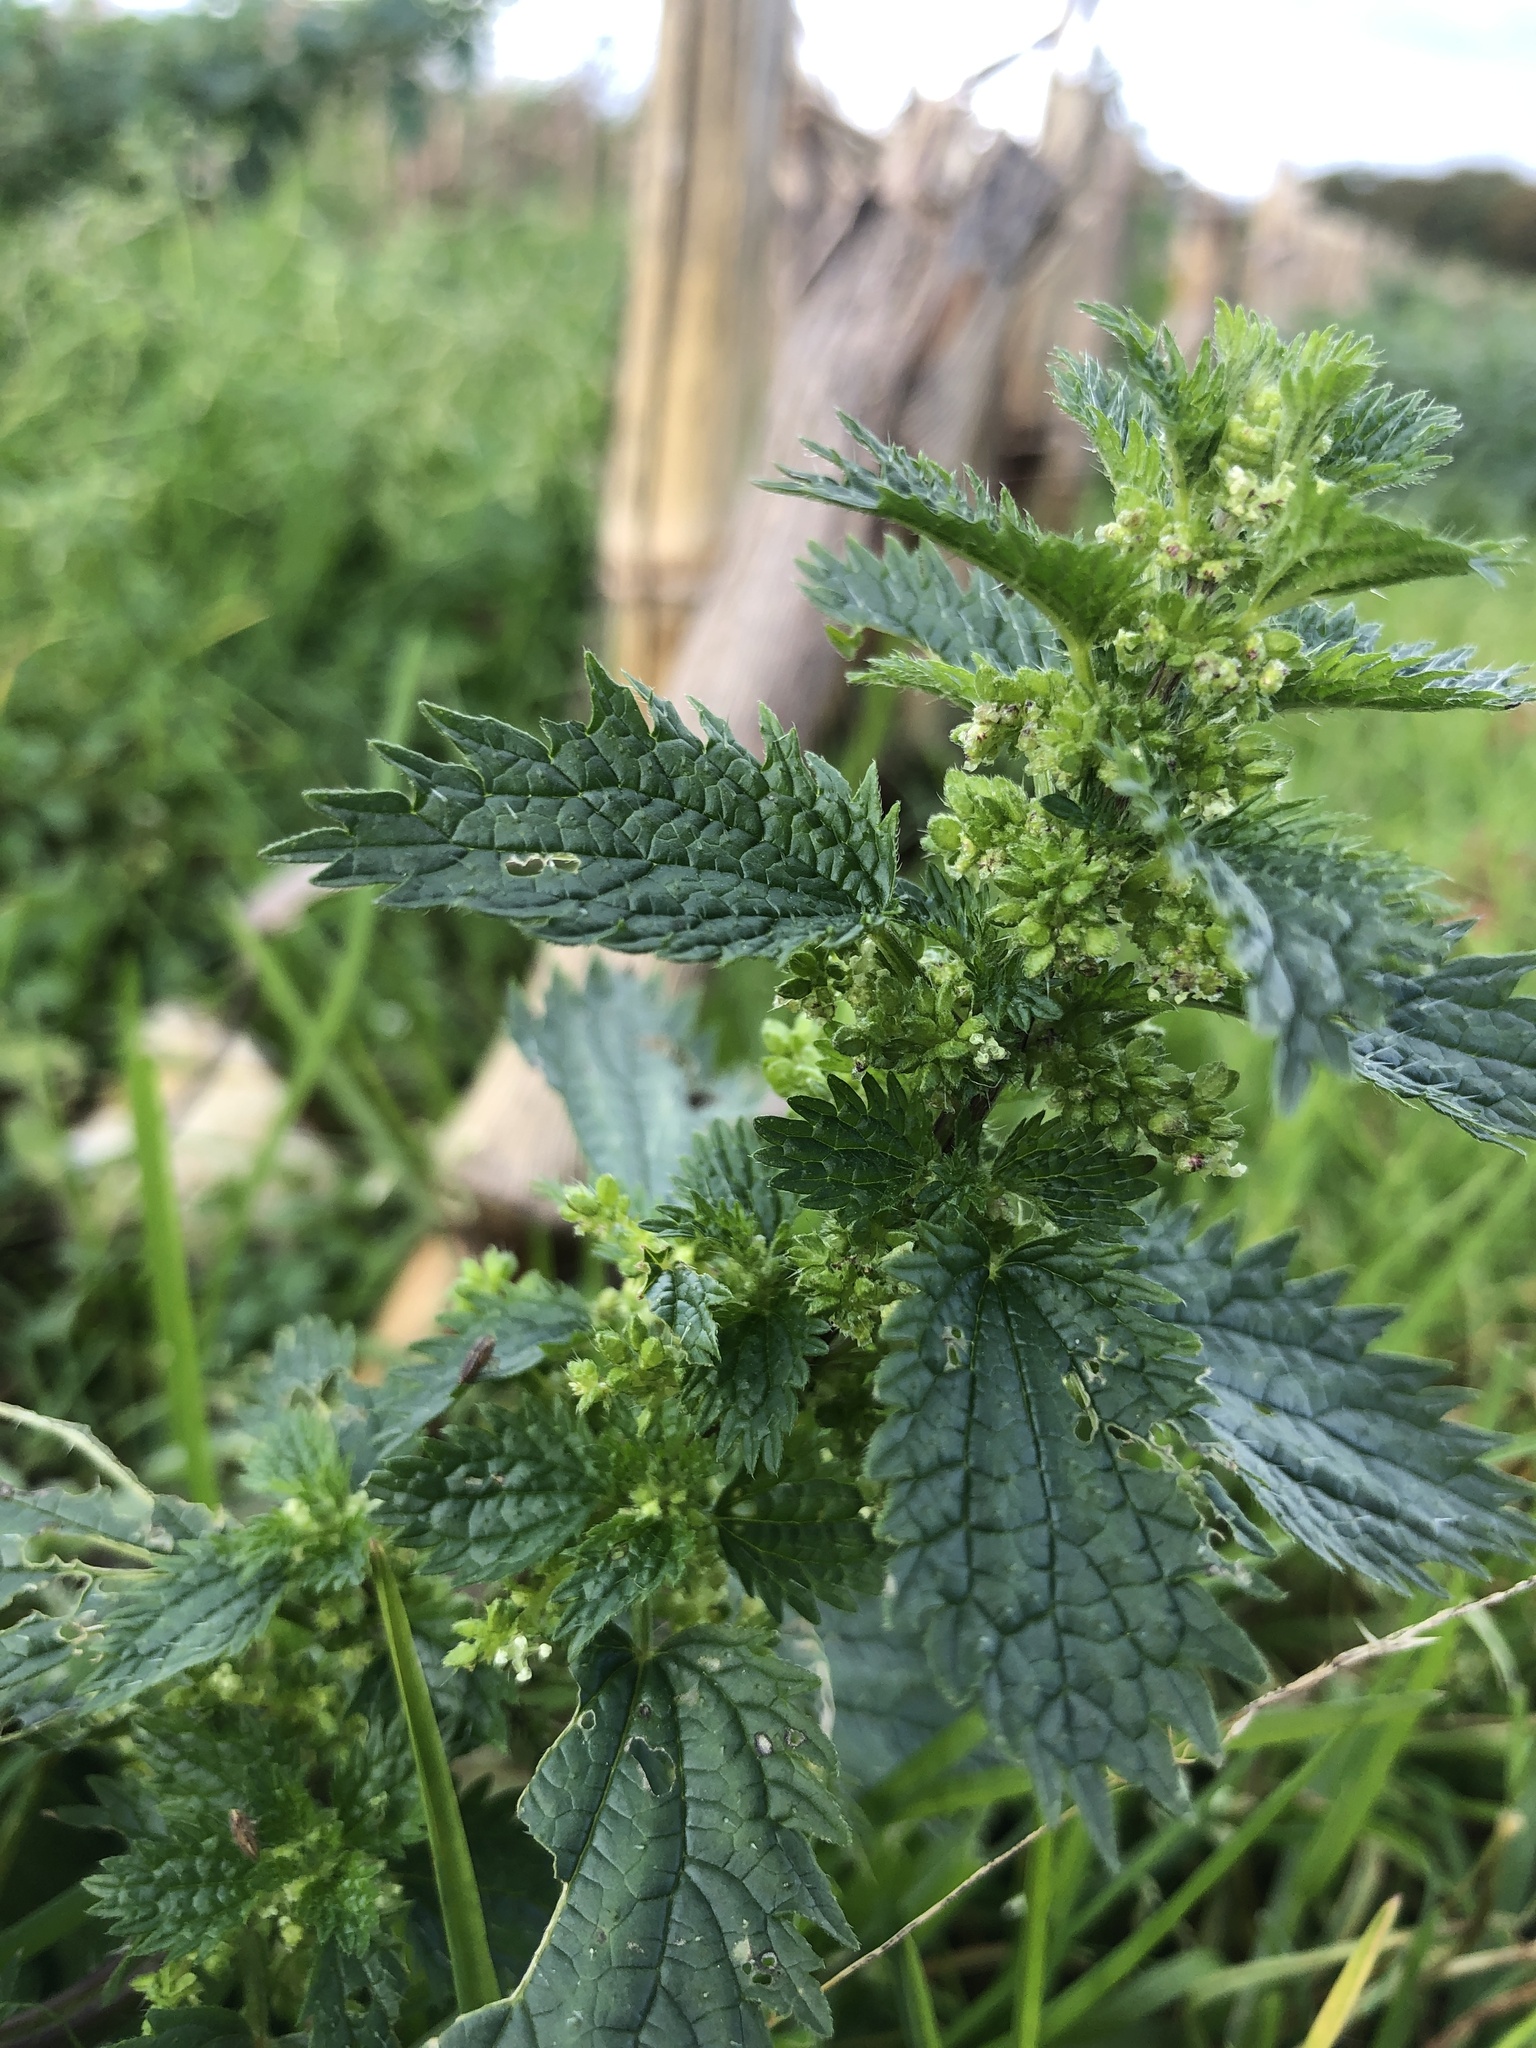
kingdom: Plantae
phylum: Tracheophyta
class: Magnoliopsida
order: Rosales
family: Urticaceae
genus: Urtica
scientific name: Urtica urens
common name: Dwarf nettle
